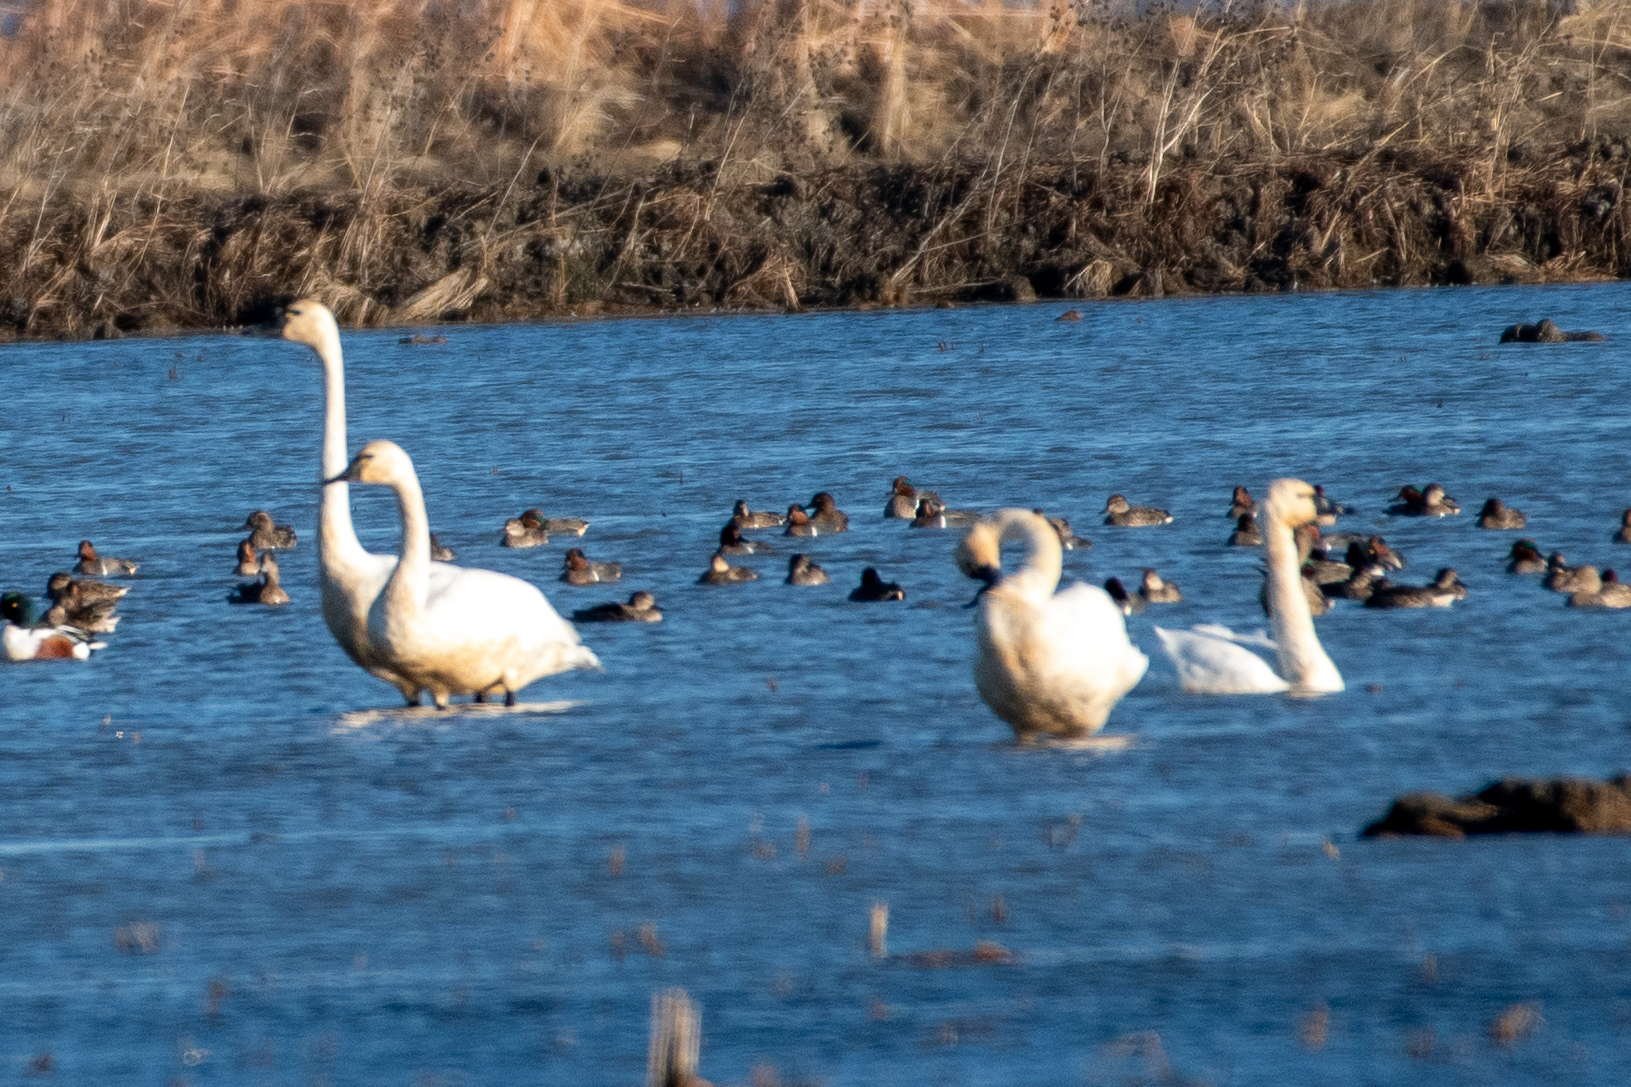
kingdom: Animalia
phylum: Chordata
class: Aves
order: Anseriformes
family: Anatidae
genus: Cygnus
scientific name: Cygnus columbianus
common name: Tundra swan
